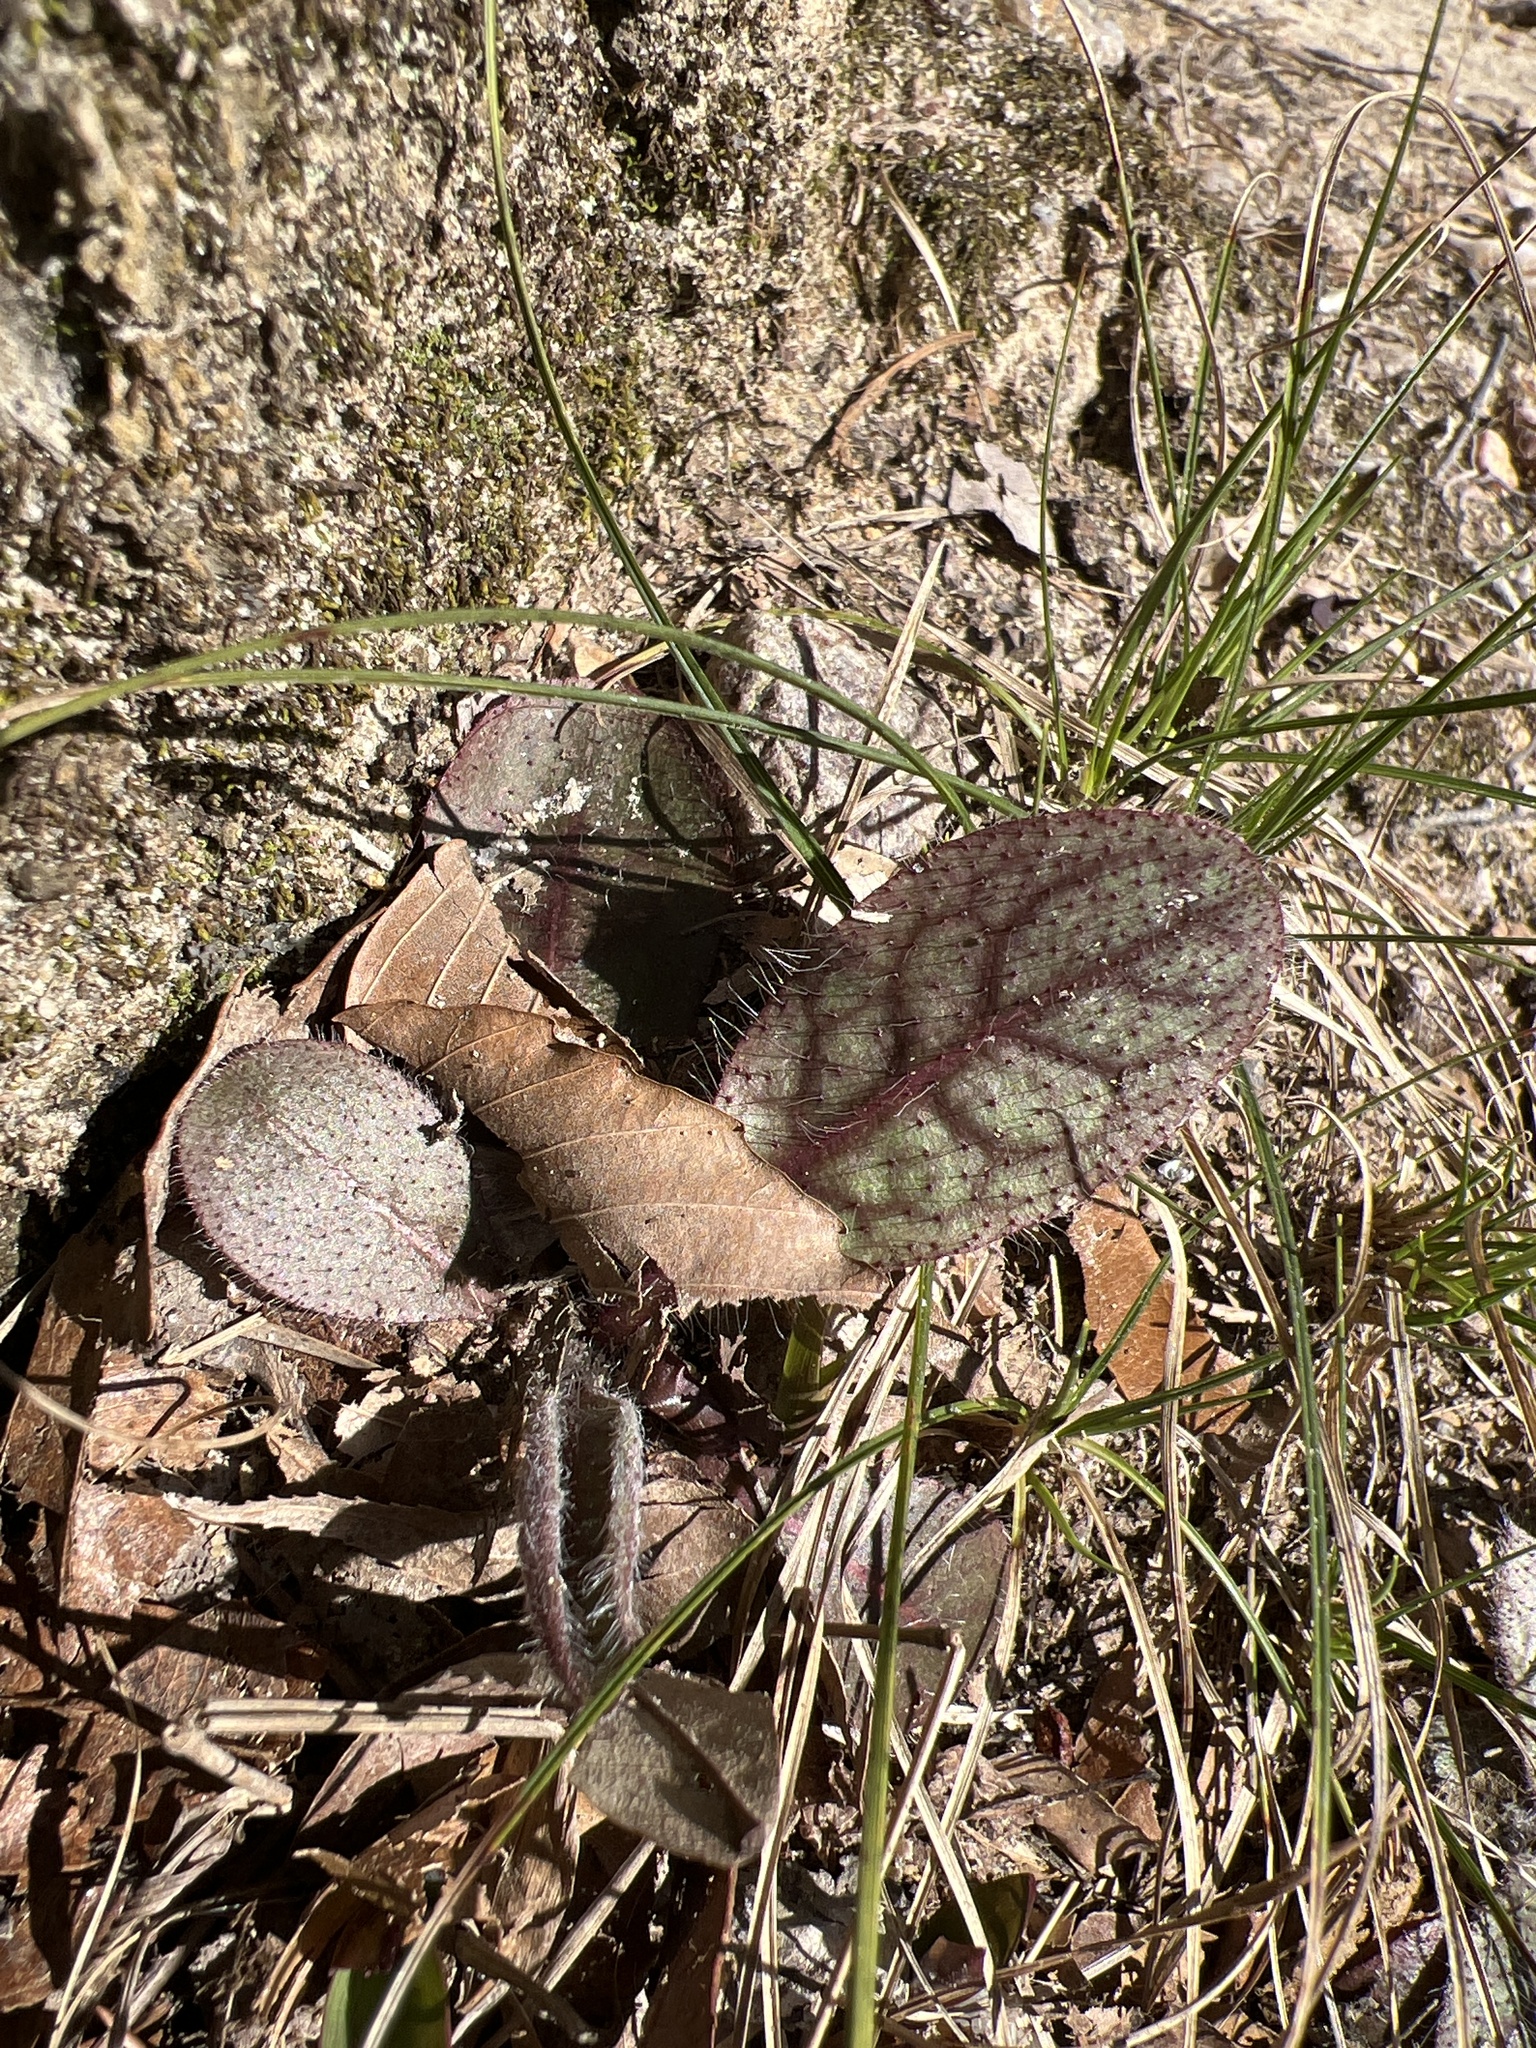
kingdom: Plantae
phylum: Tracheophyta
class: Magnoliopsida
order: Asterales
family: Asteraceae
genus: Hieracium
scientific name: Hieracium venosum
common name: Rattlesnake hawkweed
